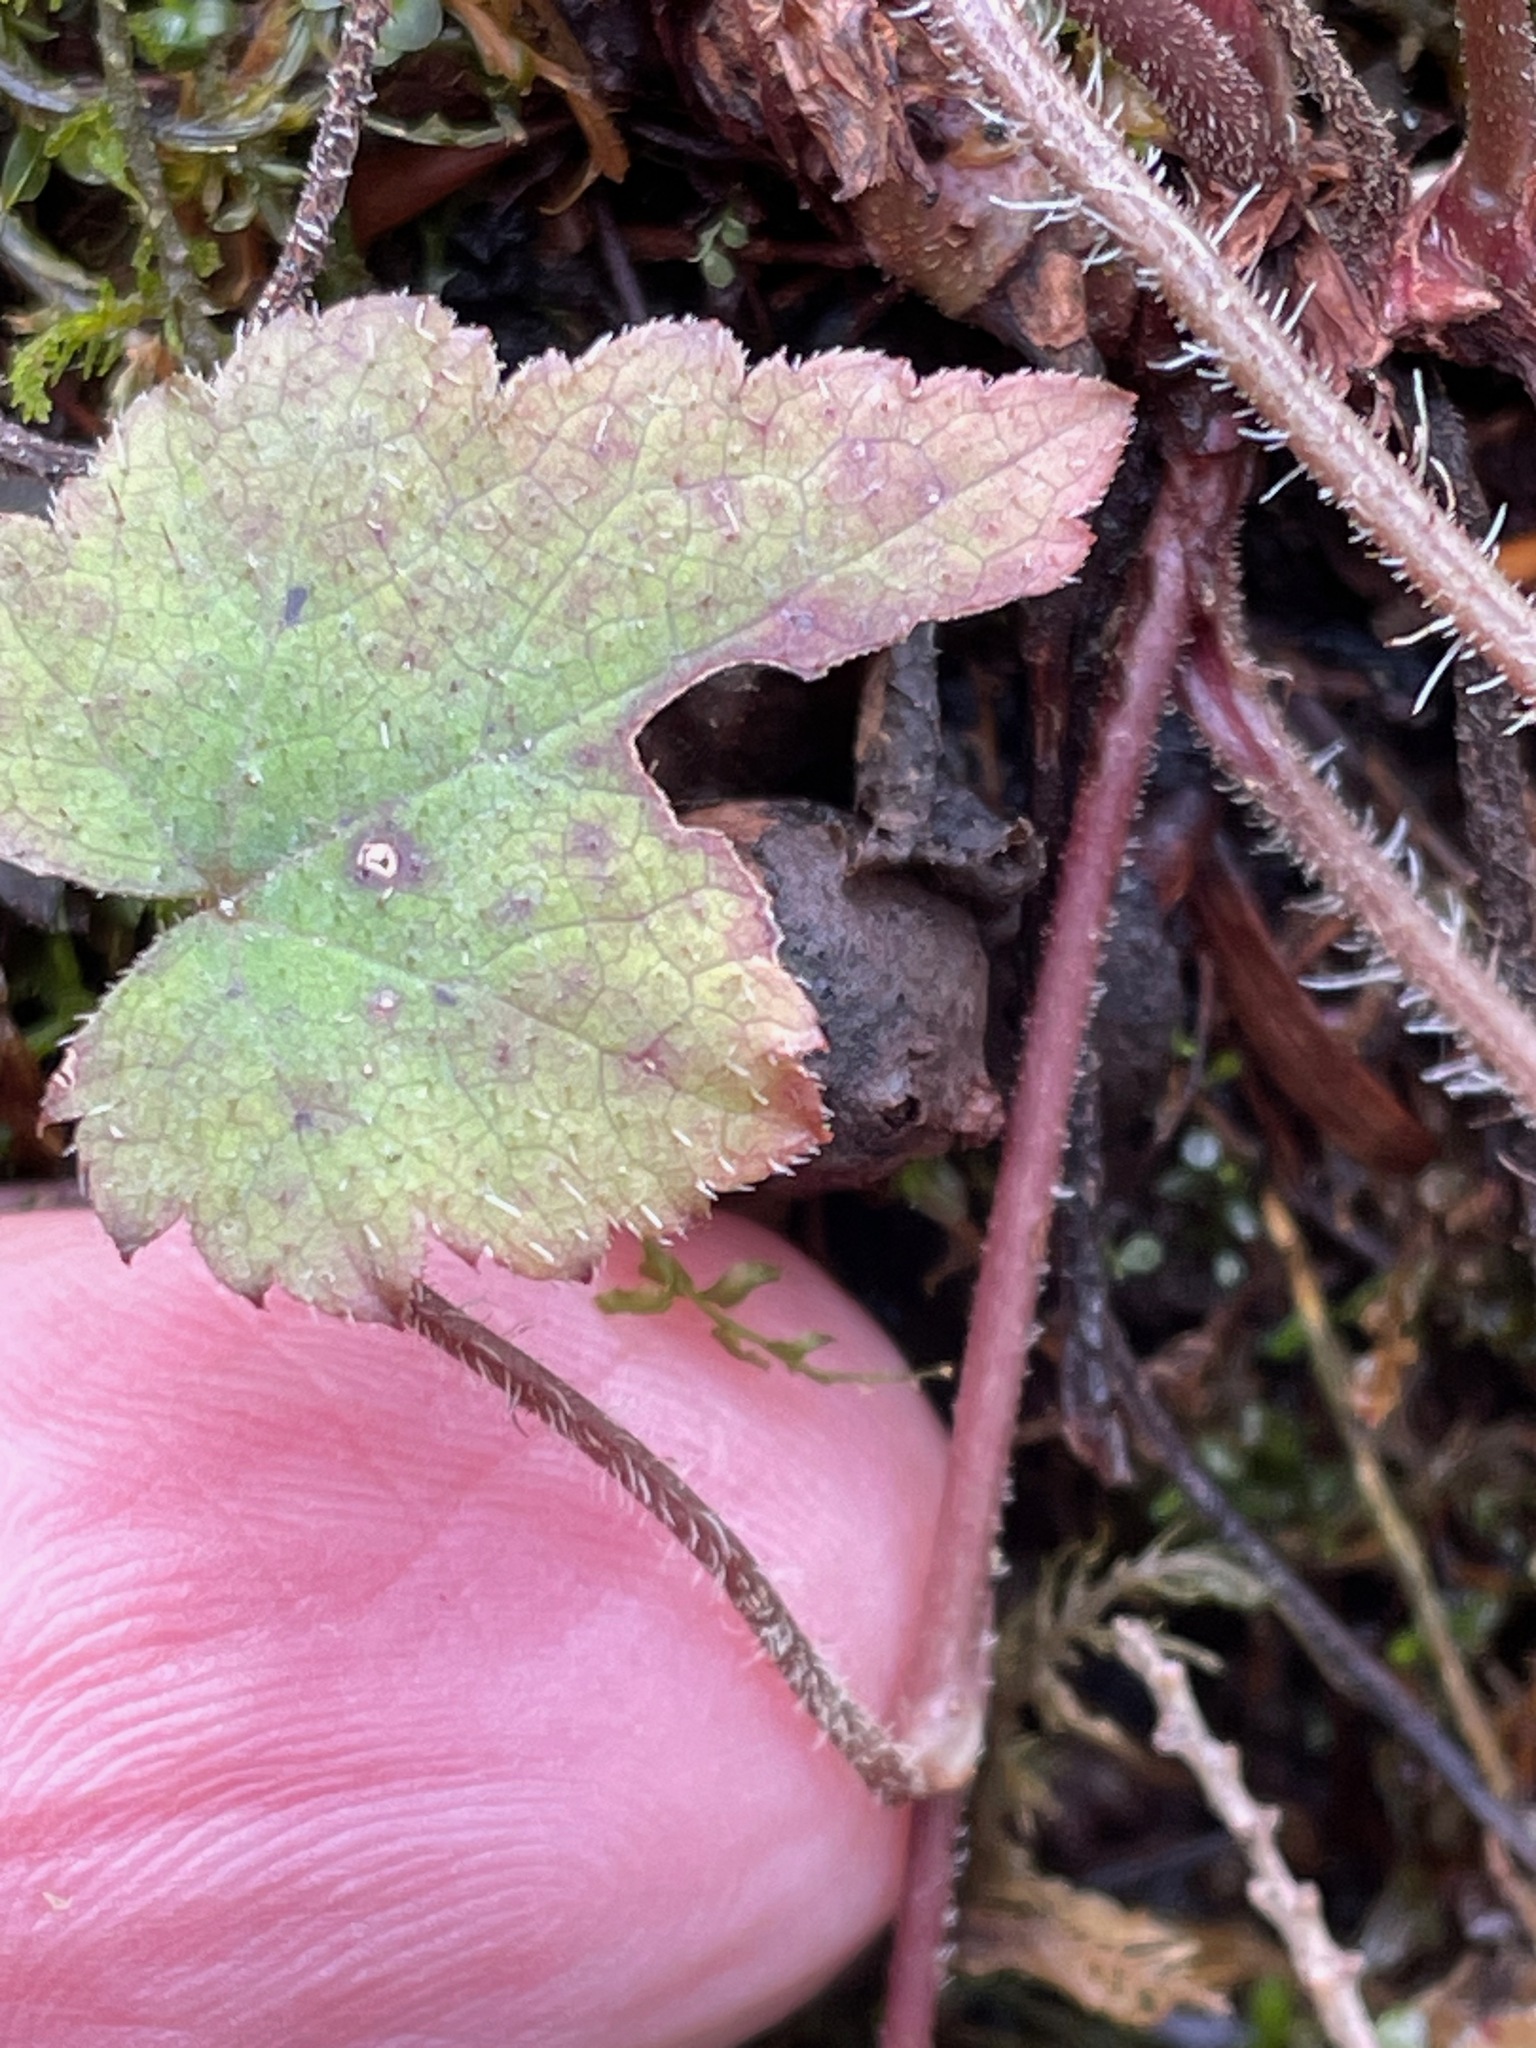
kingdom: Plantae
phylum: Tracheophyta
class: Magnoliopsida
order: Saxifragales
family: Saxifragaceae
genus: Tiarella
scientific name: Tiarella stolonifera
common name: Stoloniferous foamflower
